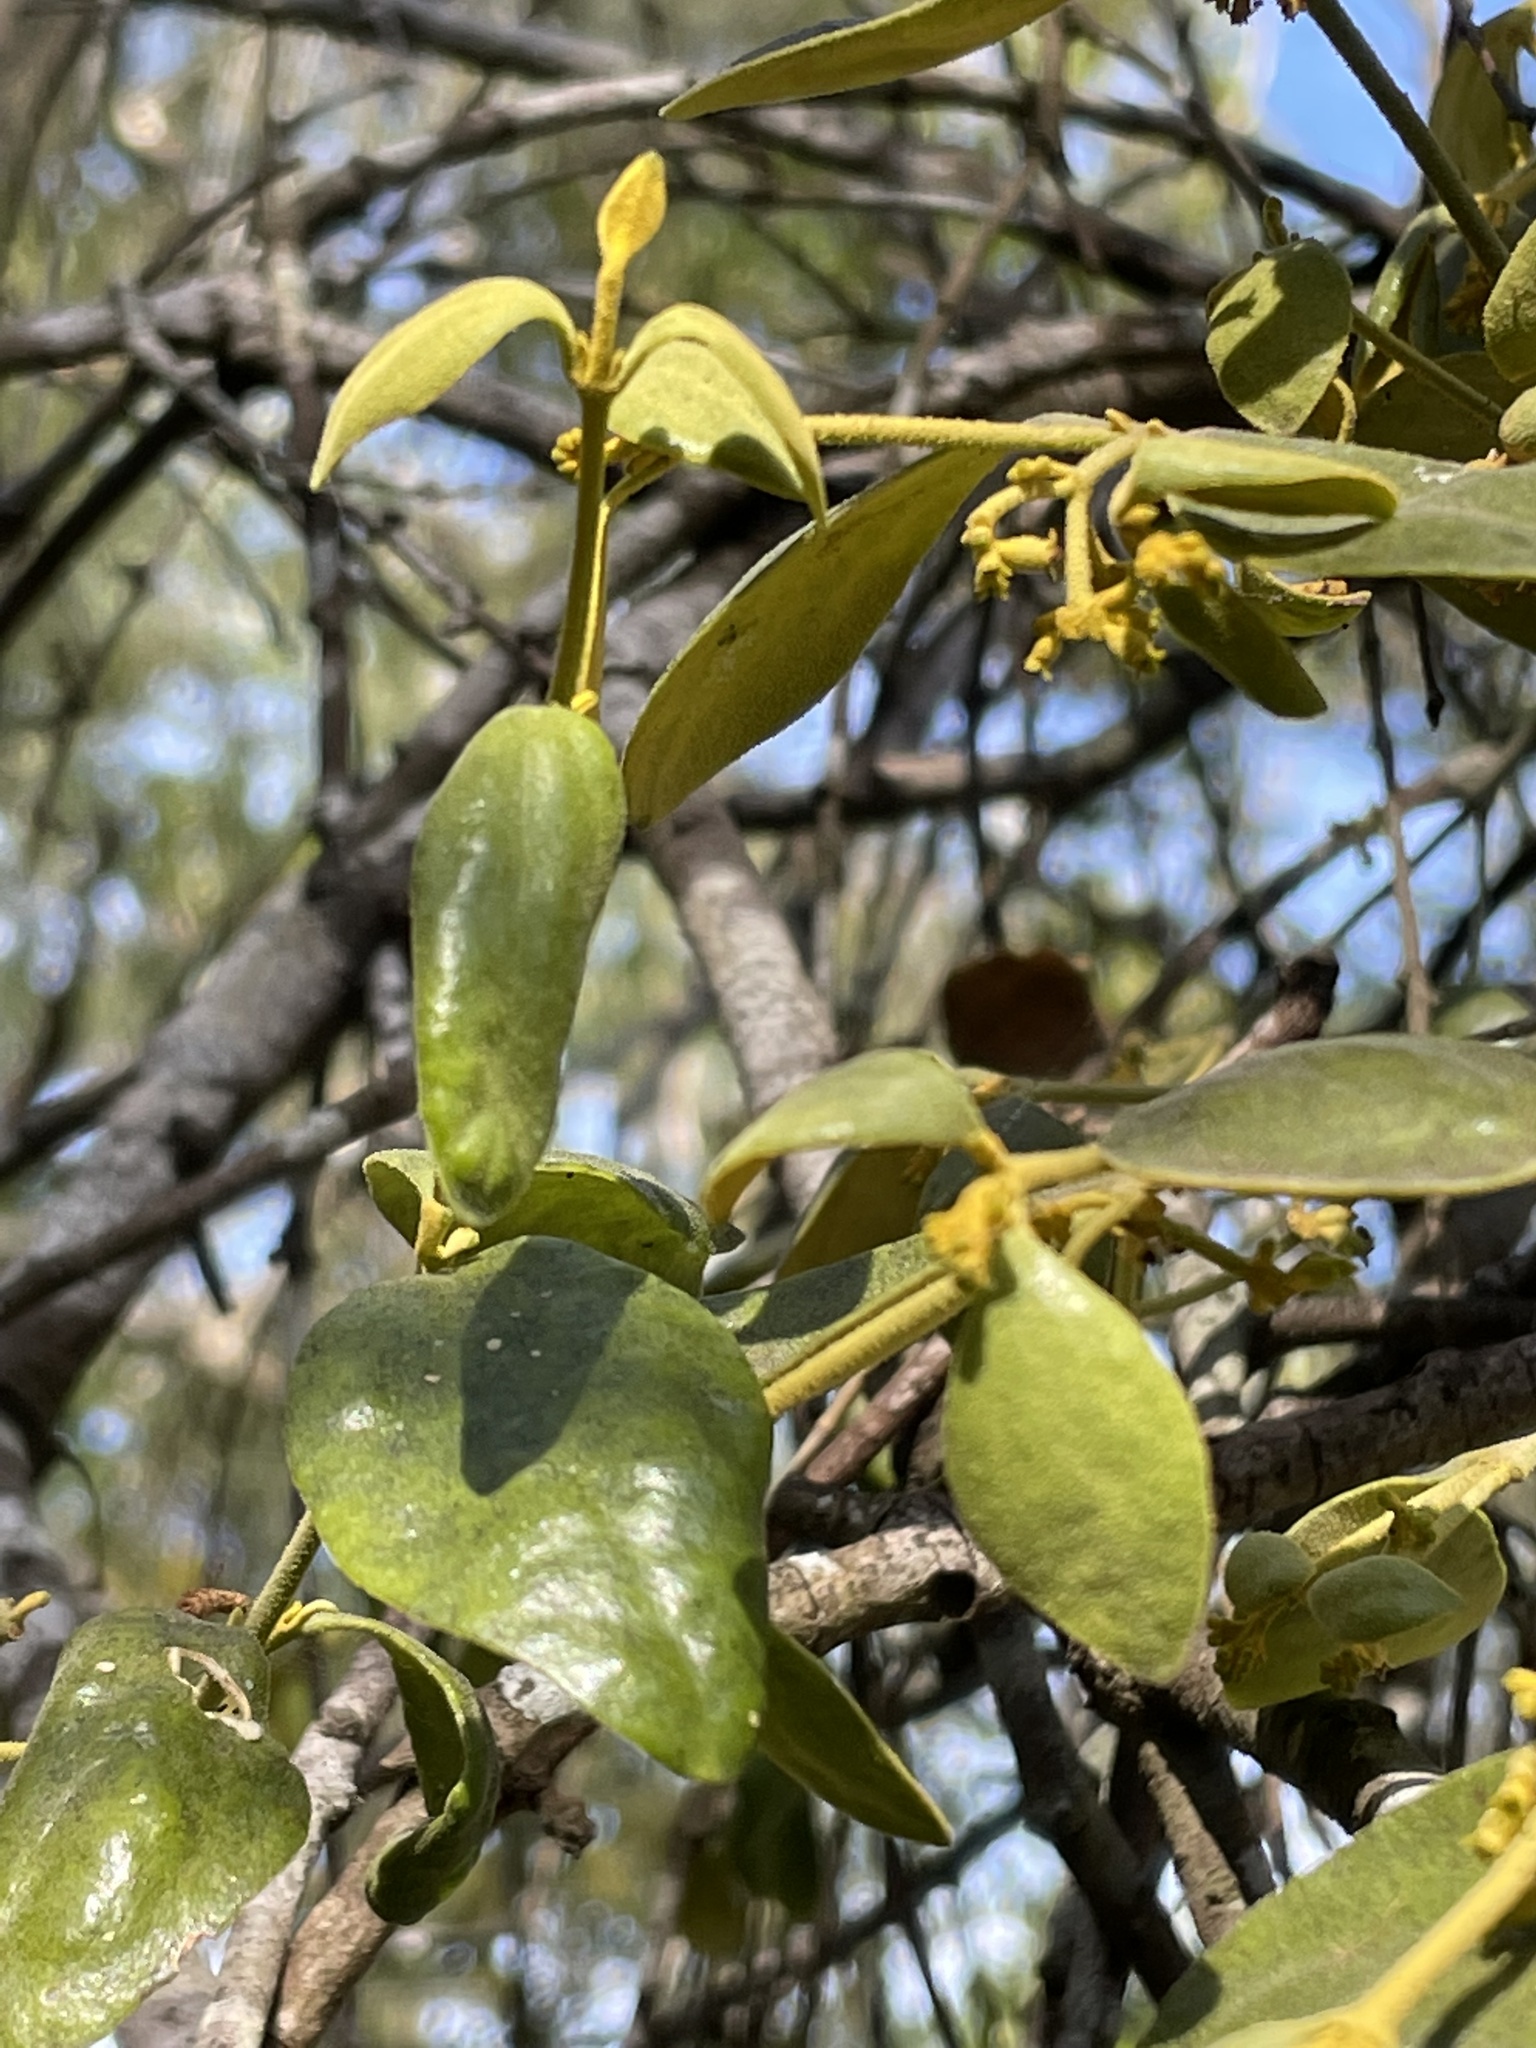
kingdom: Plantae
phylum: Tracheophyta
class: Magnoliopsida
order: Santalales
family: Viscaceae
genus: Notothixos
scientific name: Notothixos subaureus
